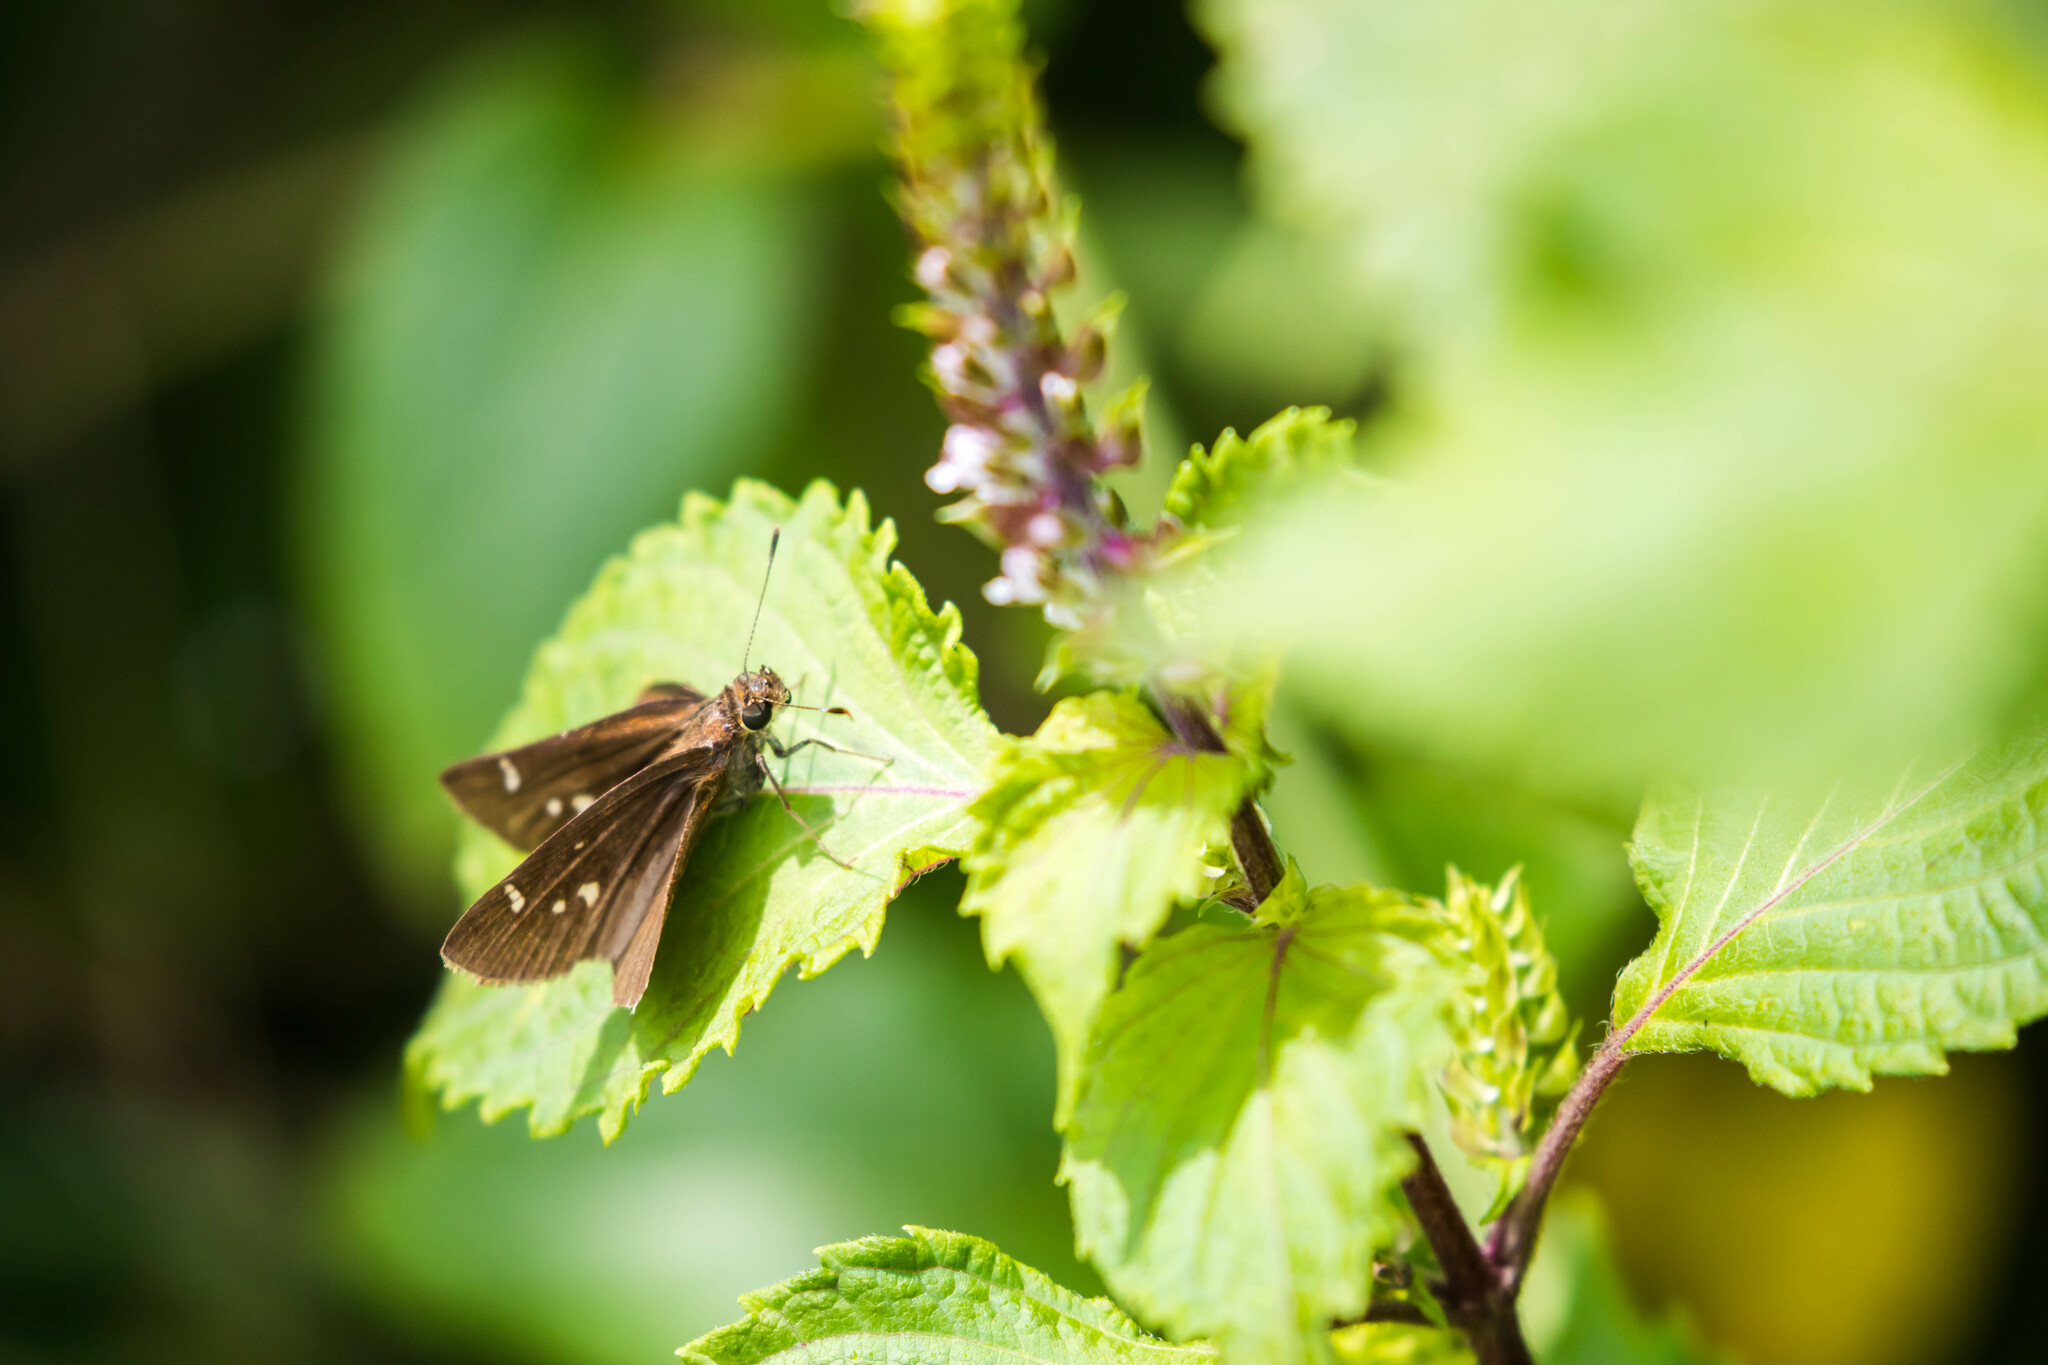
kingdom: Animalia
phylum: Arthropoda
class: Insecta
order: Lepidoptera
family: Hesperiidae
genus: Lerema
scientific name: Lerema accius
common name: Clouded skipper
